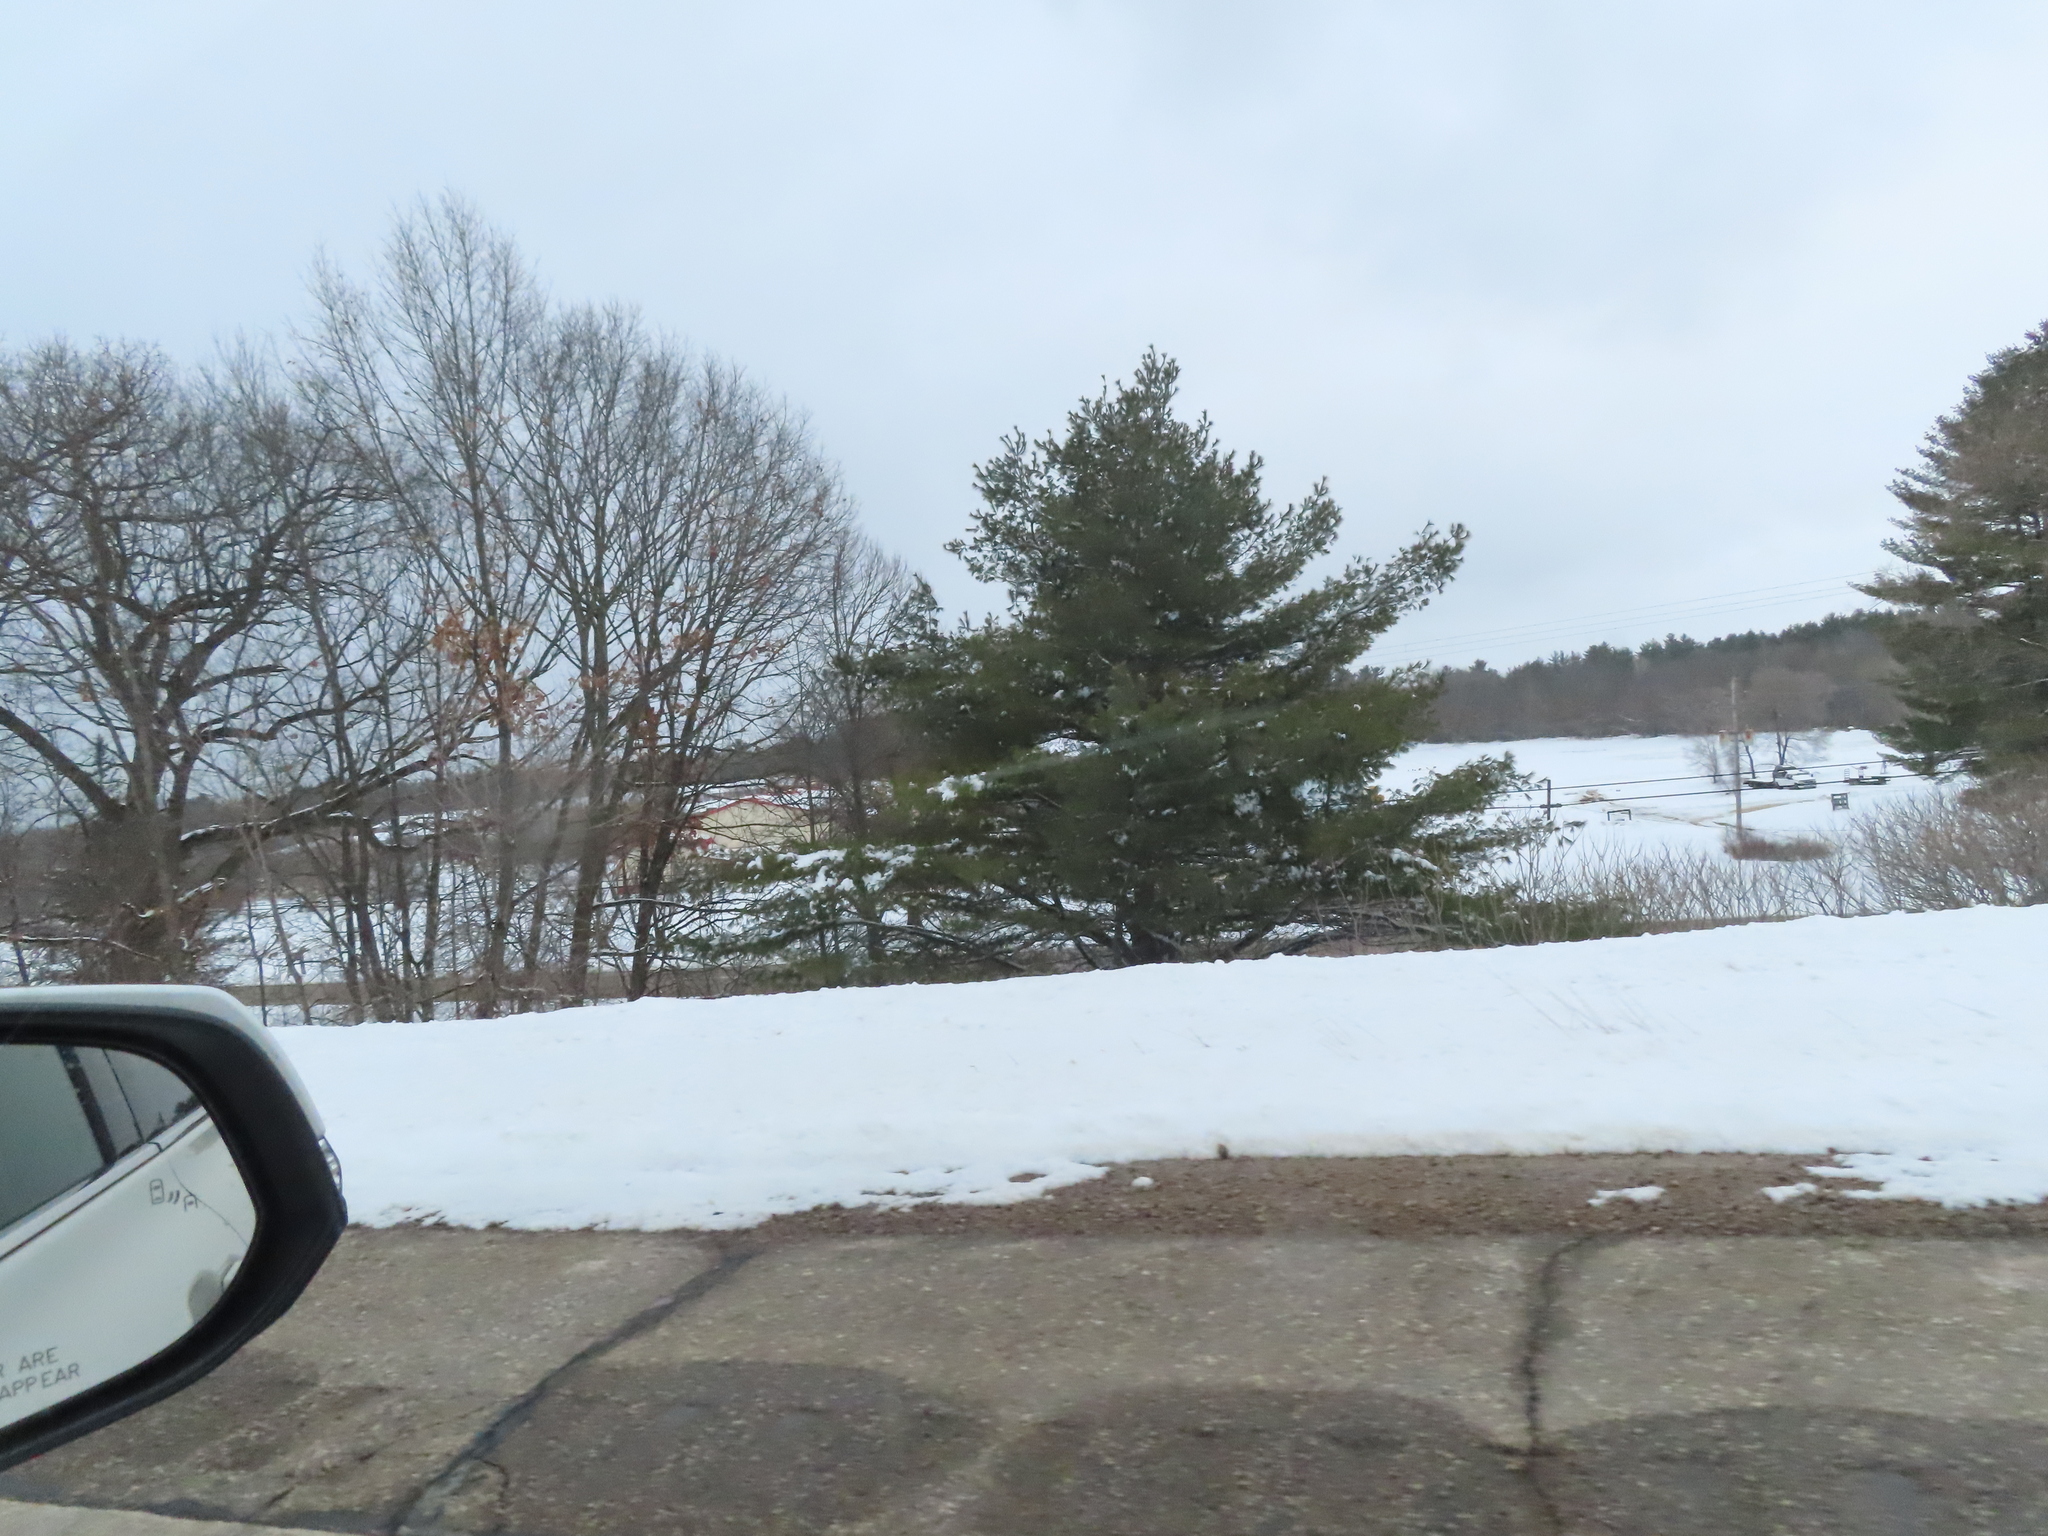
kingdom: Plantae
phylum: Tracheophyta
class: Pinopsida
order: Pinales
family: Pinaceae
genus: Pinus
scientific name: Pinus strobus
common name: Weymouth pine
